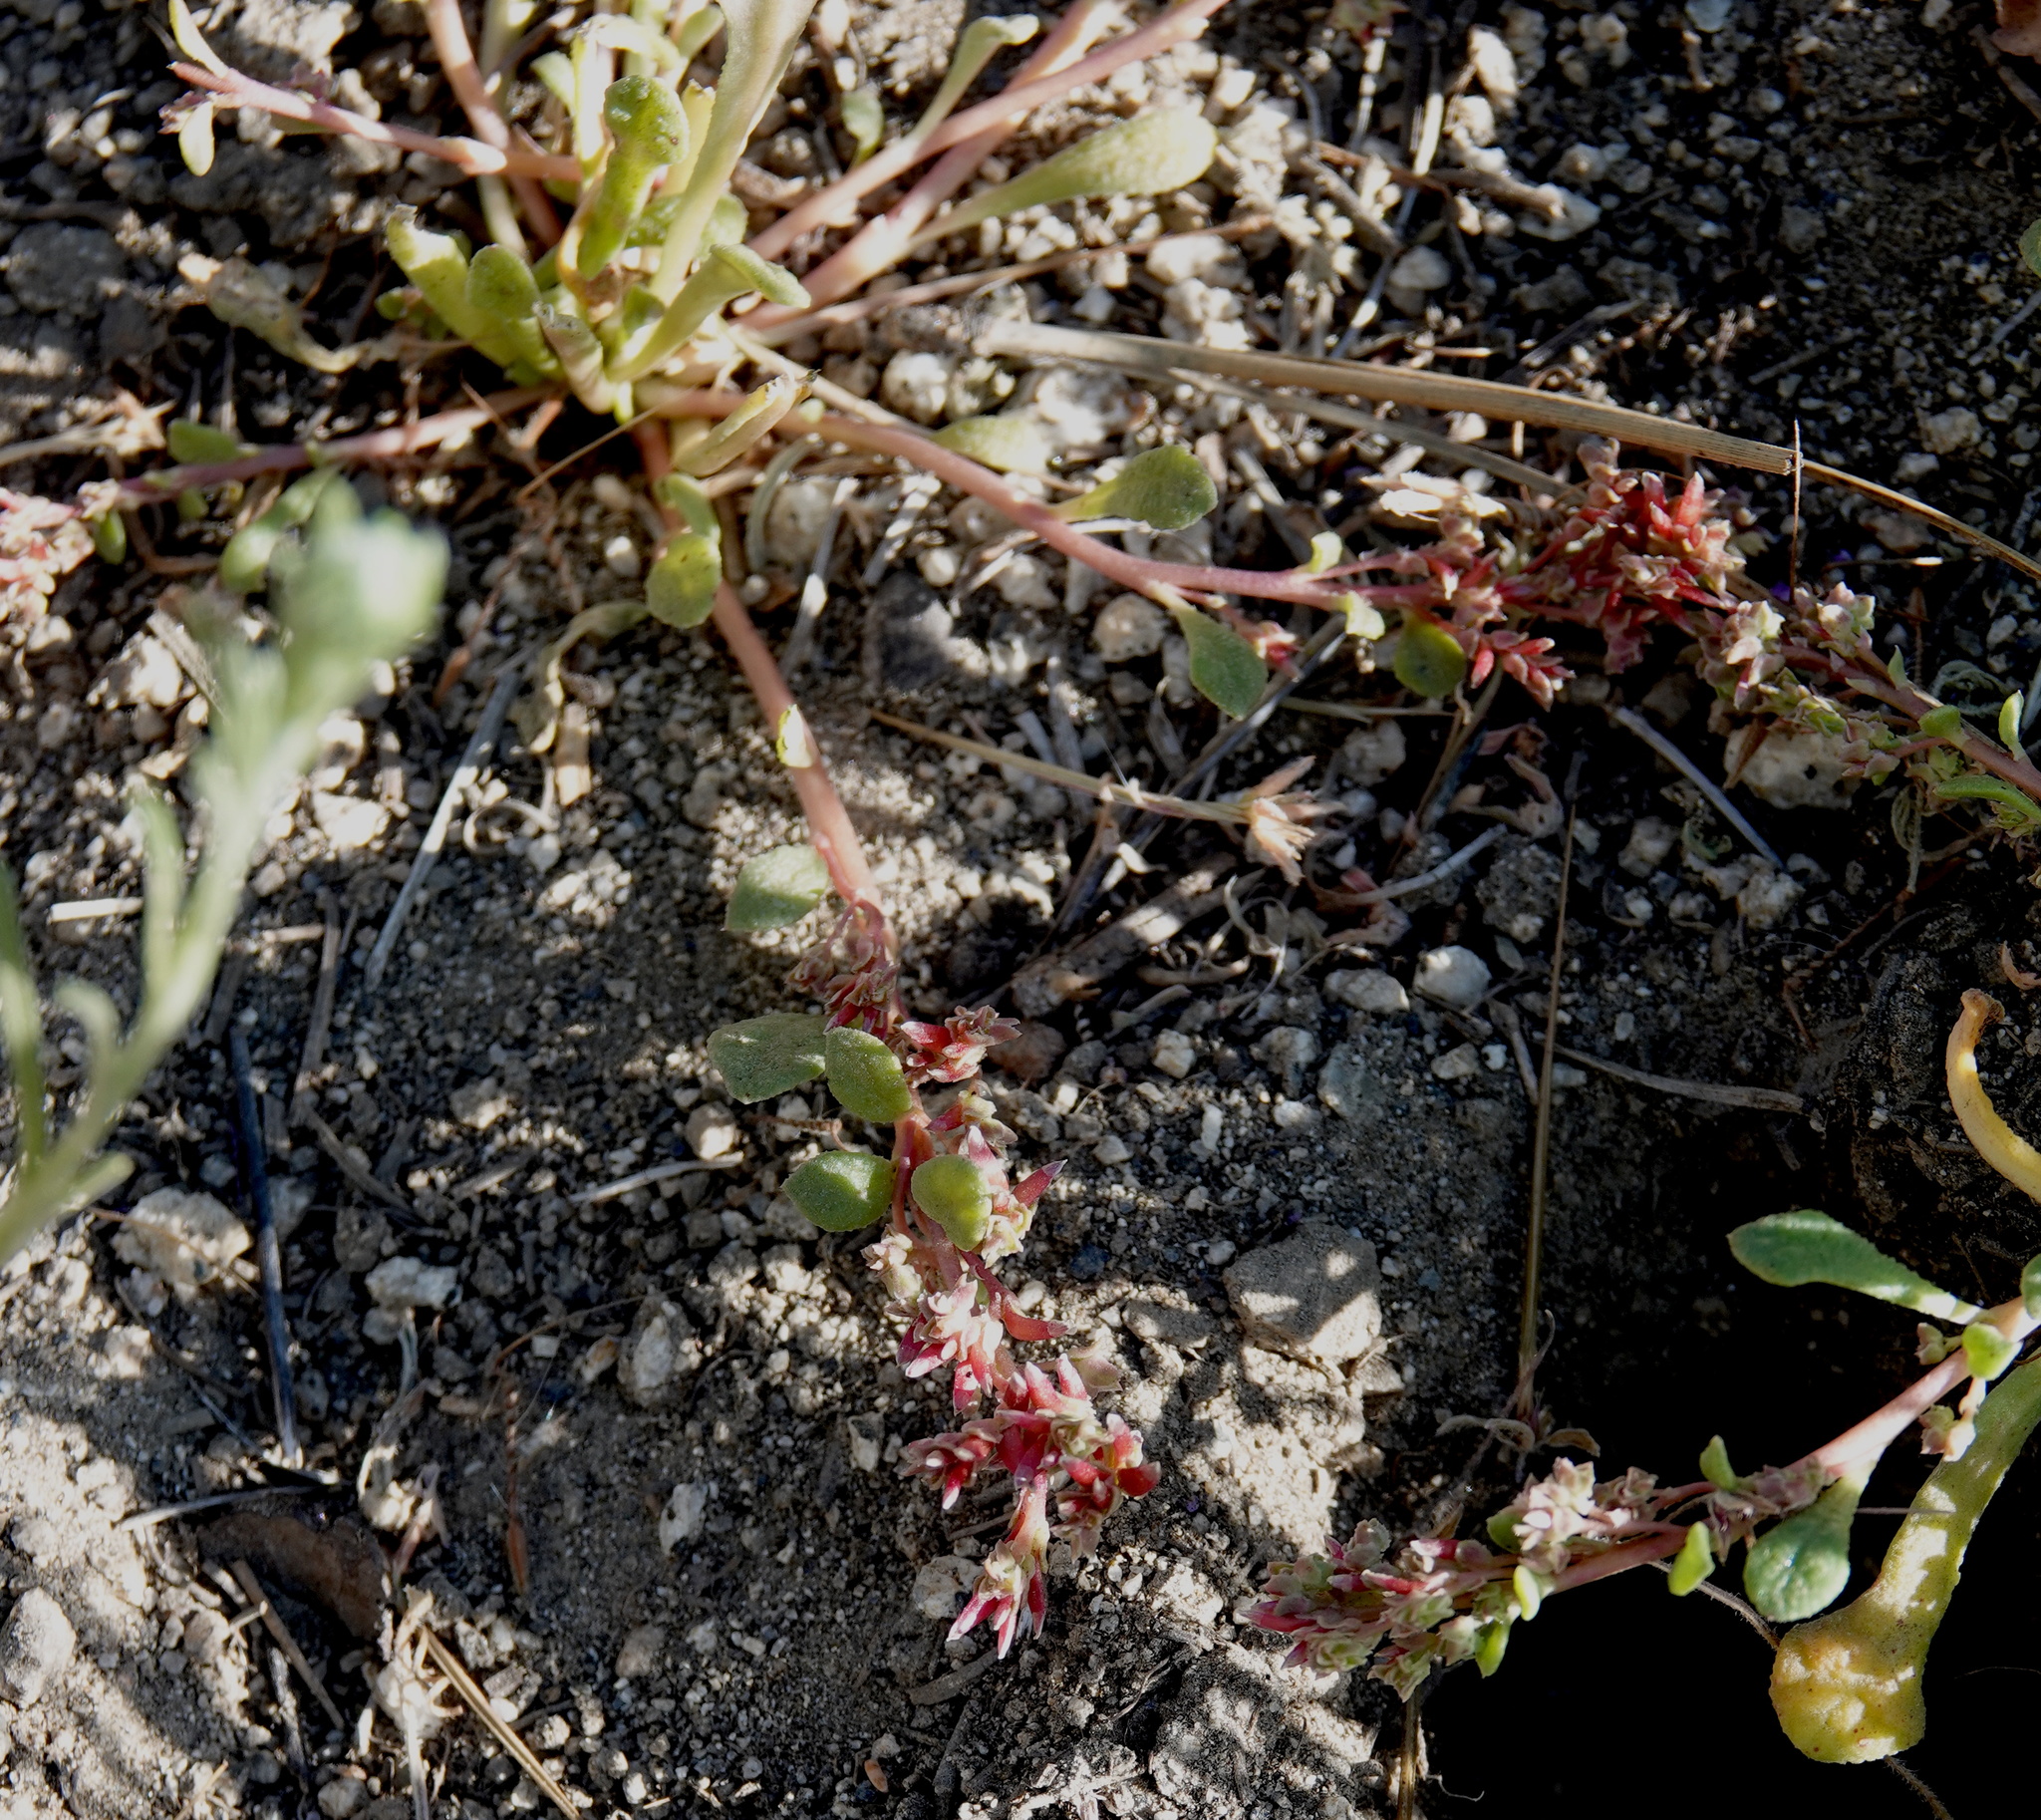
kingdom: Plantae
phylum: Tracheophyta
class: Magnoliopsida
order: Caryophyllales
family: Montiaceae
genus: Calyptridium
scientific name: Calyptridium monandrum
